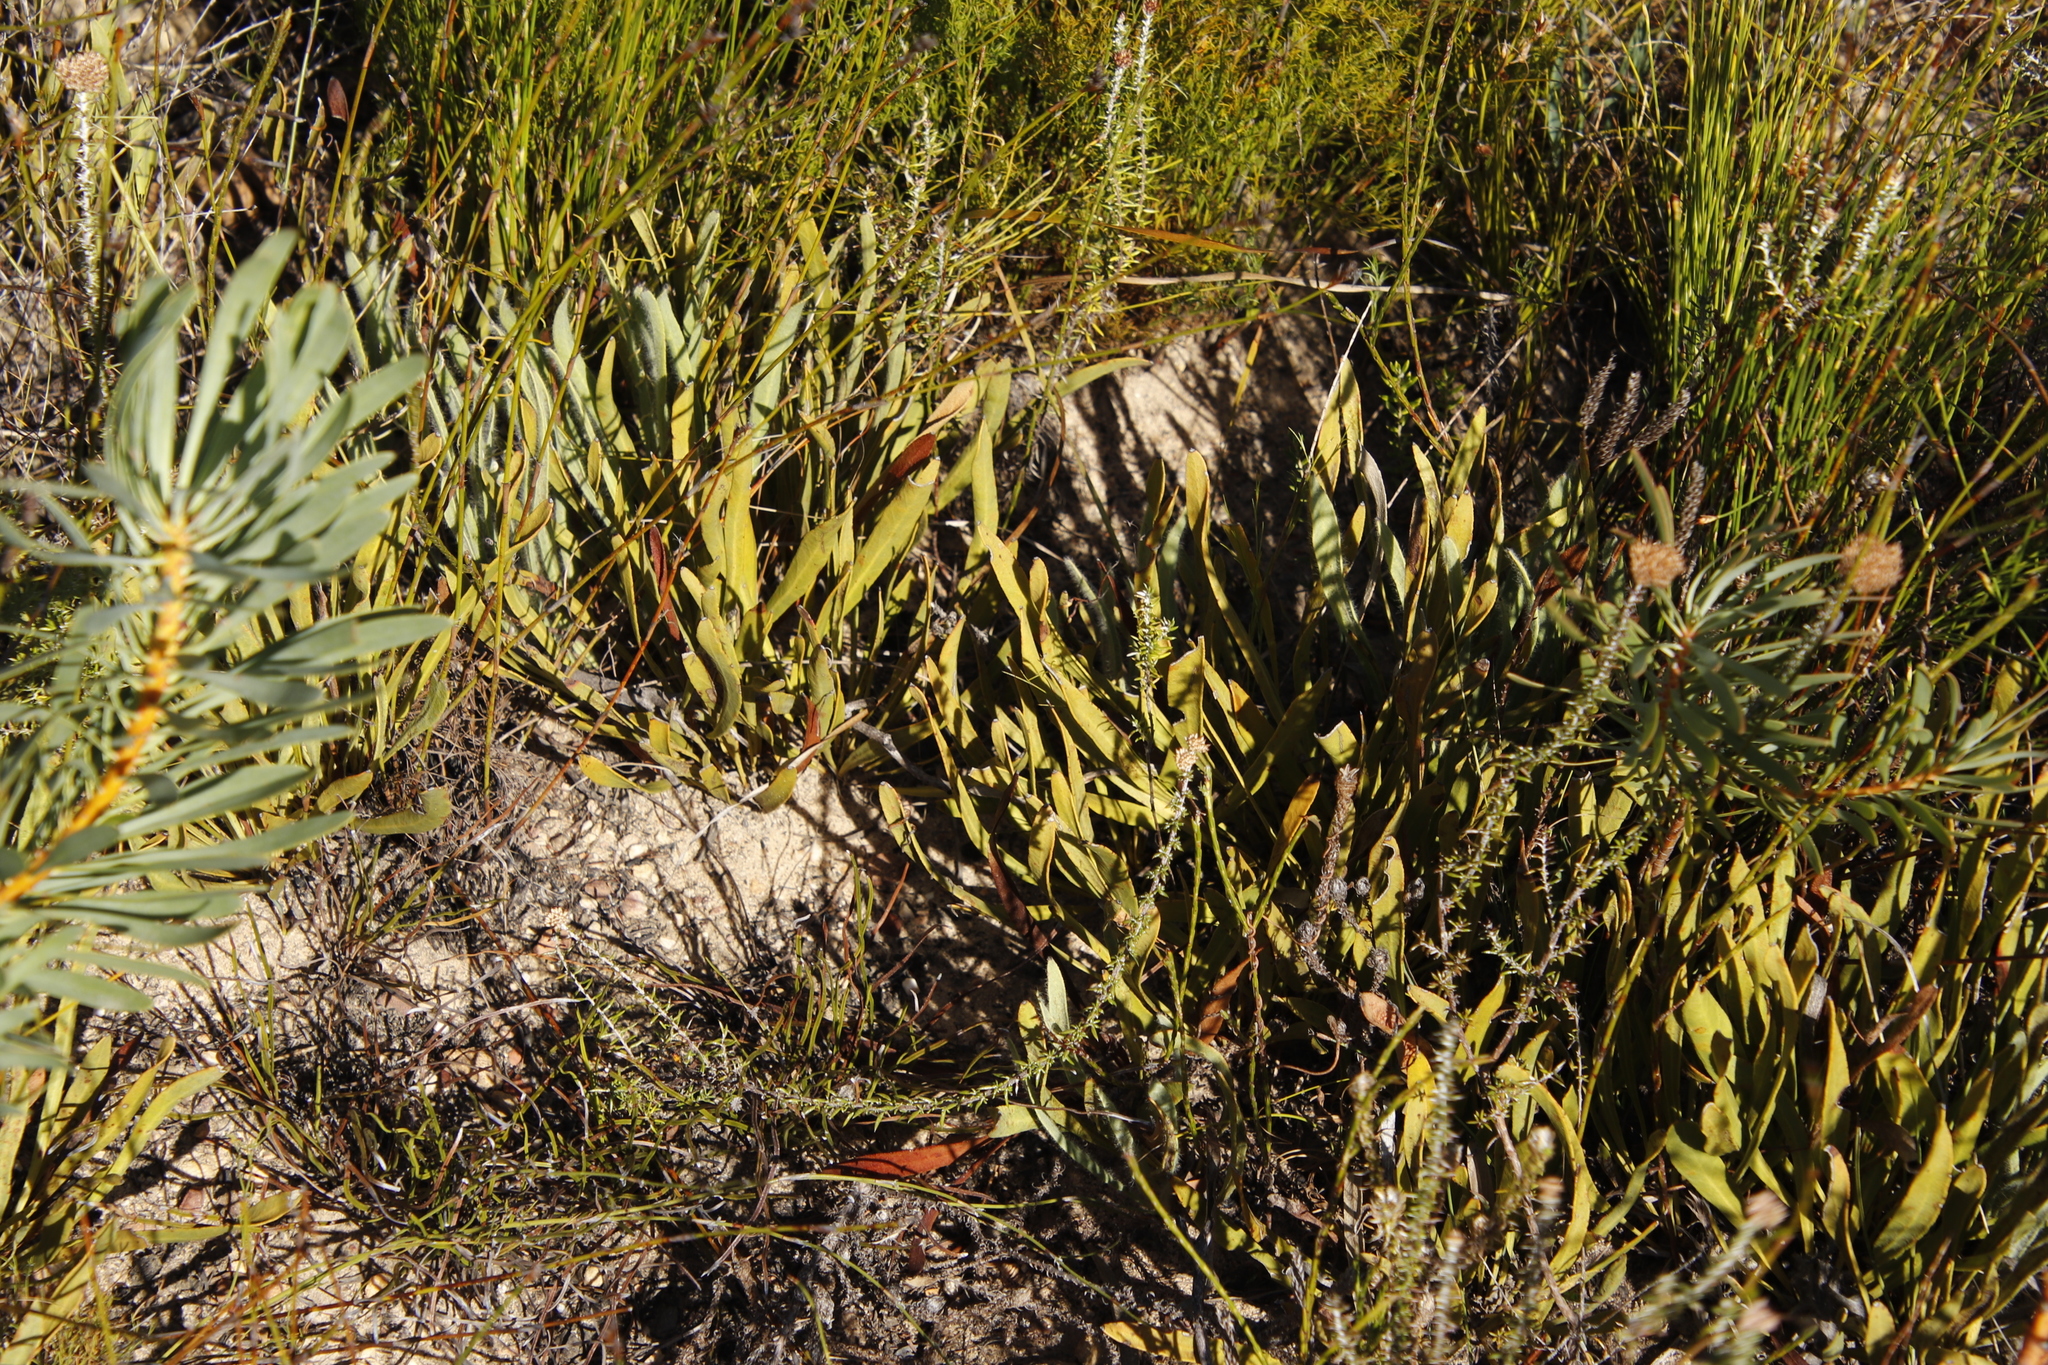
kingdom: Plantae
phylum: Tracheophyta
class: Magnoliopsida
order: Proteales
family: Proteaceae
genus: Protea
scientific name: Protea scabra
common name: Sandpaper-leaf sugarbush
